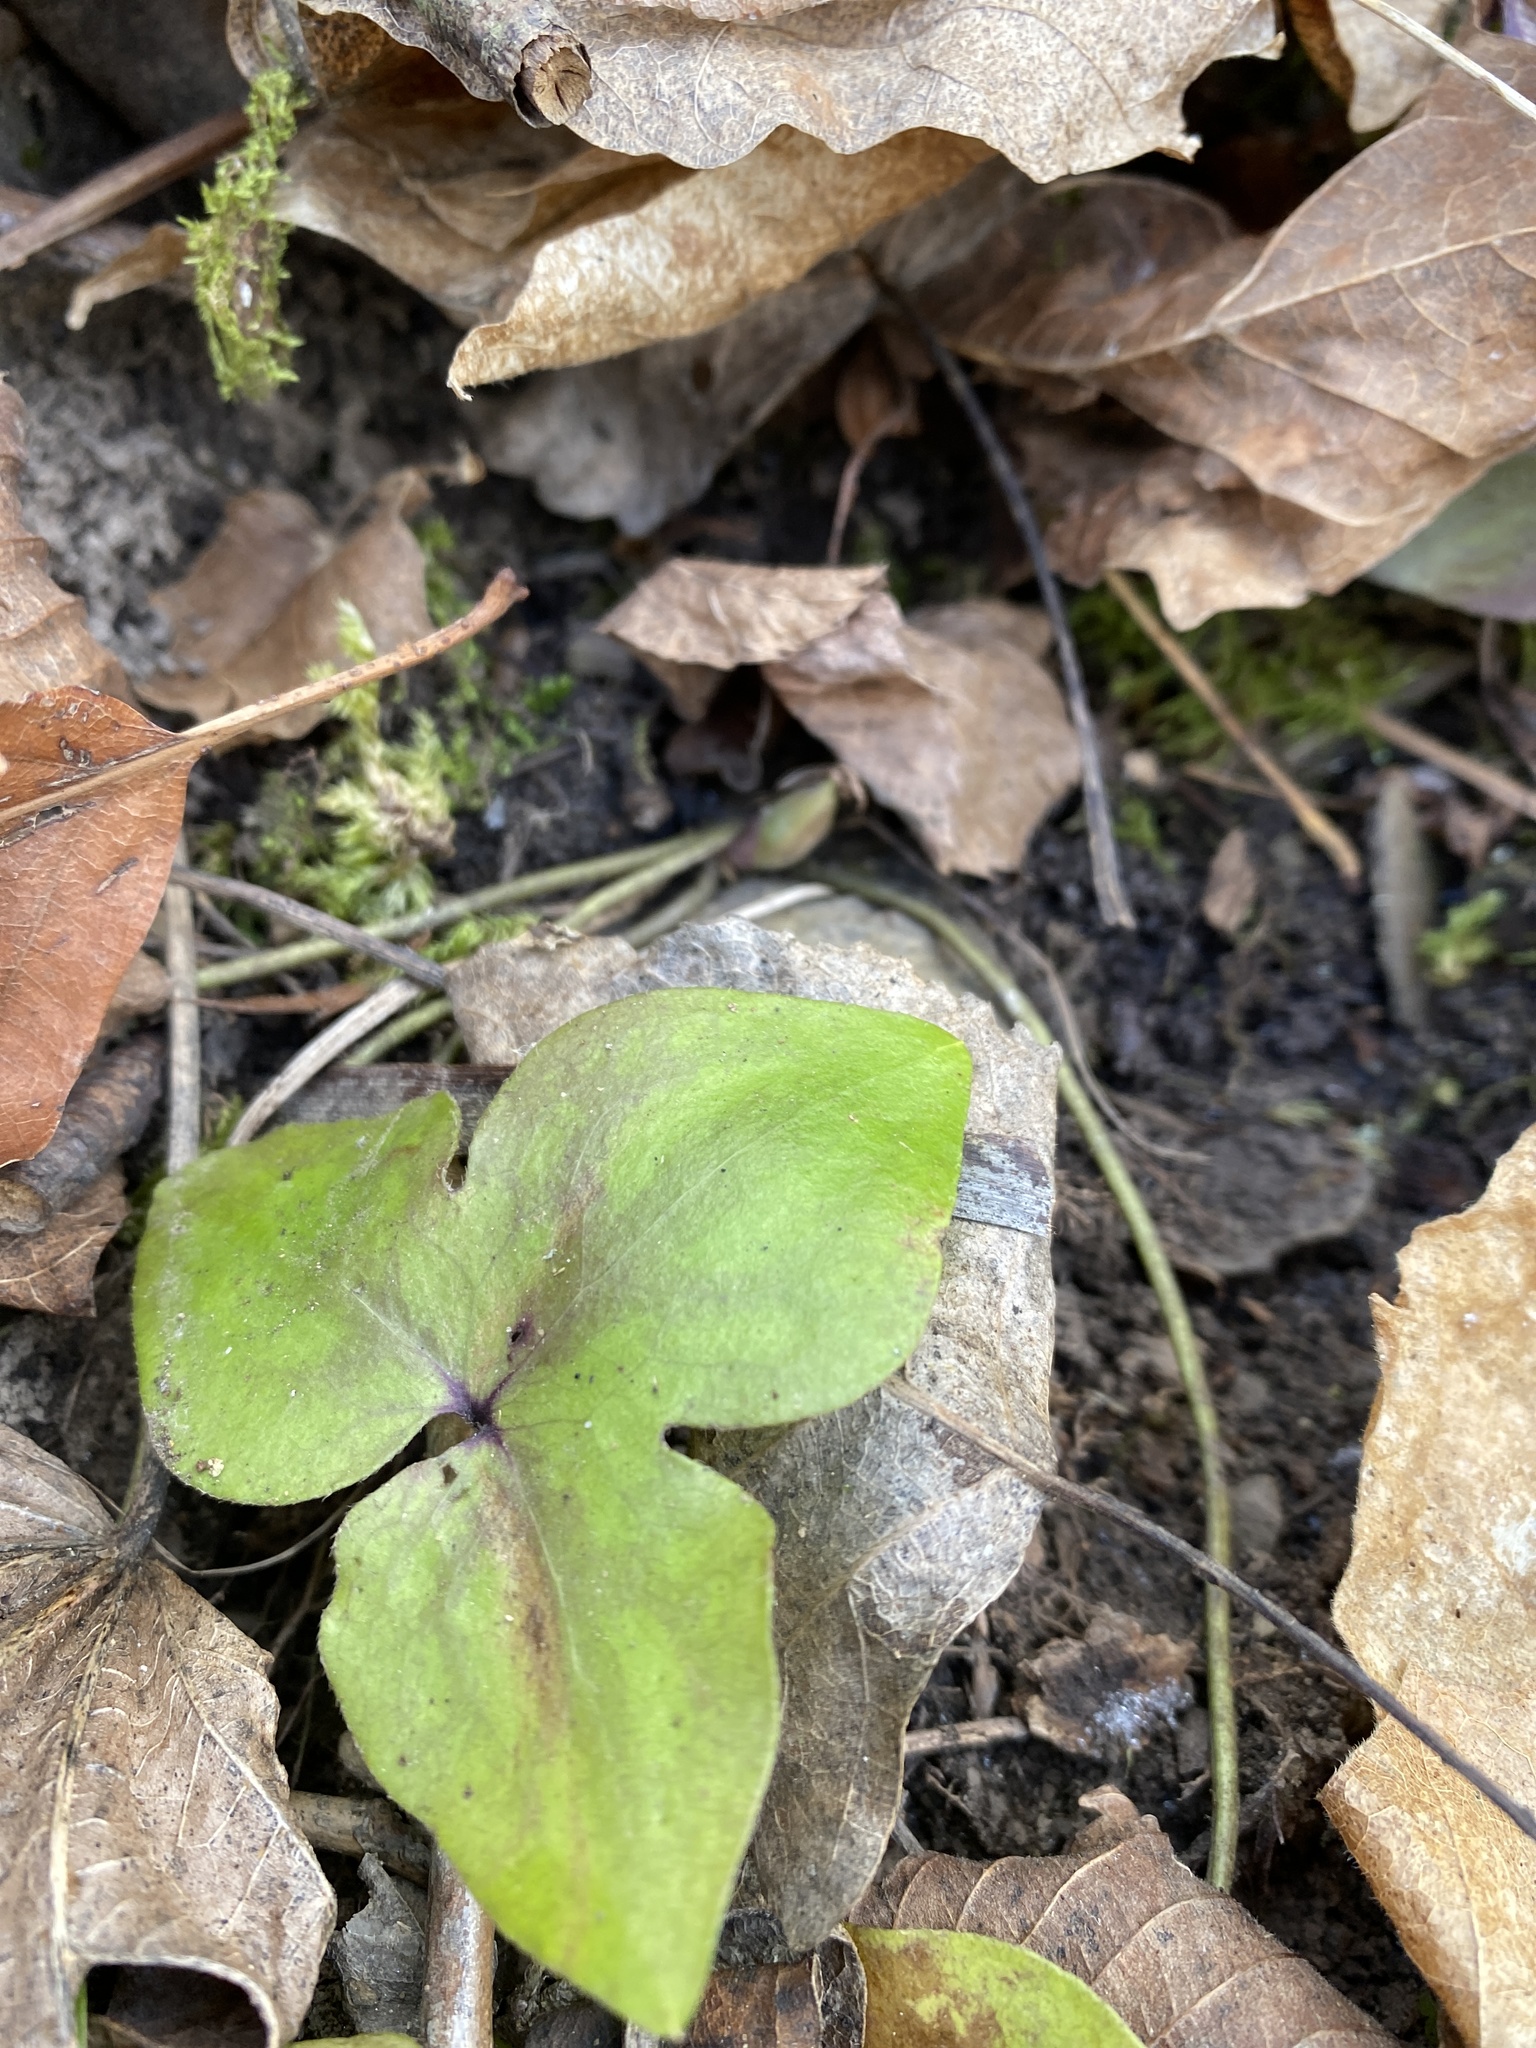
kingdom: Plantae
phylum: Tracheophyta
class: Magnoliopsida
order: Ranunculales
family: Ranunculaceae
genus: Hepatica
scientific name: Hepatica acutiloba
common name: Sharp-lobed hepatica
